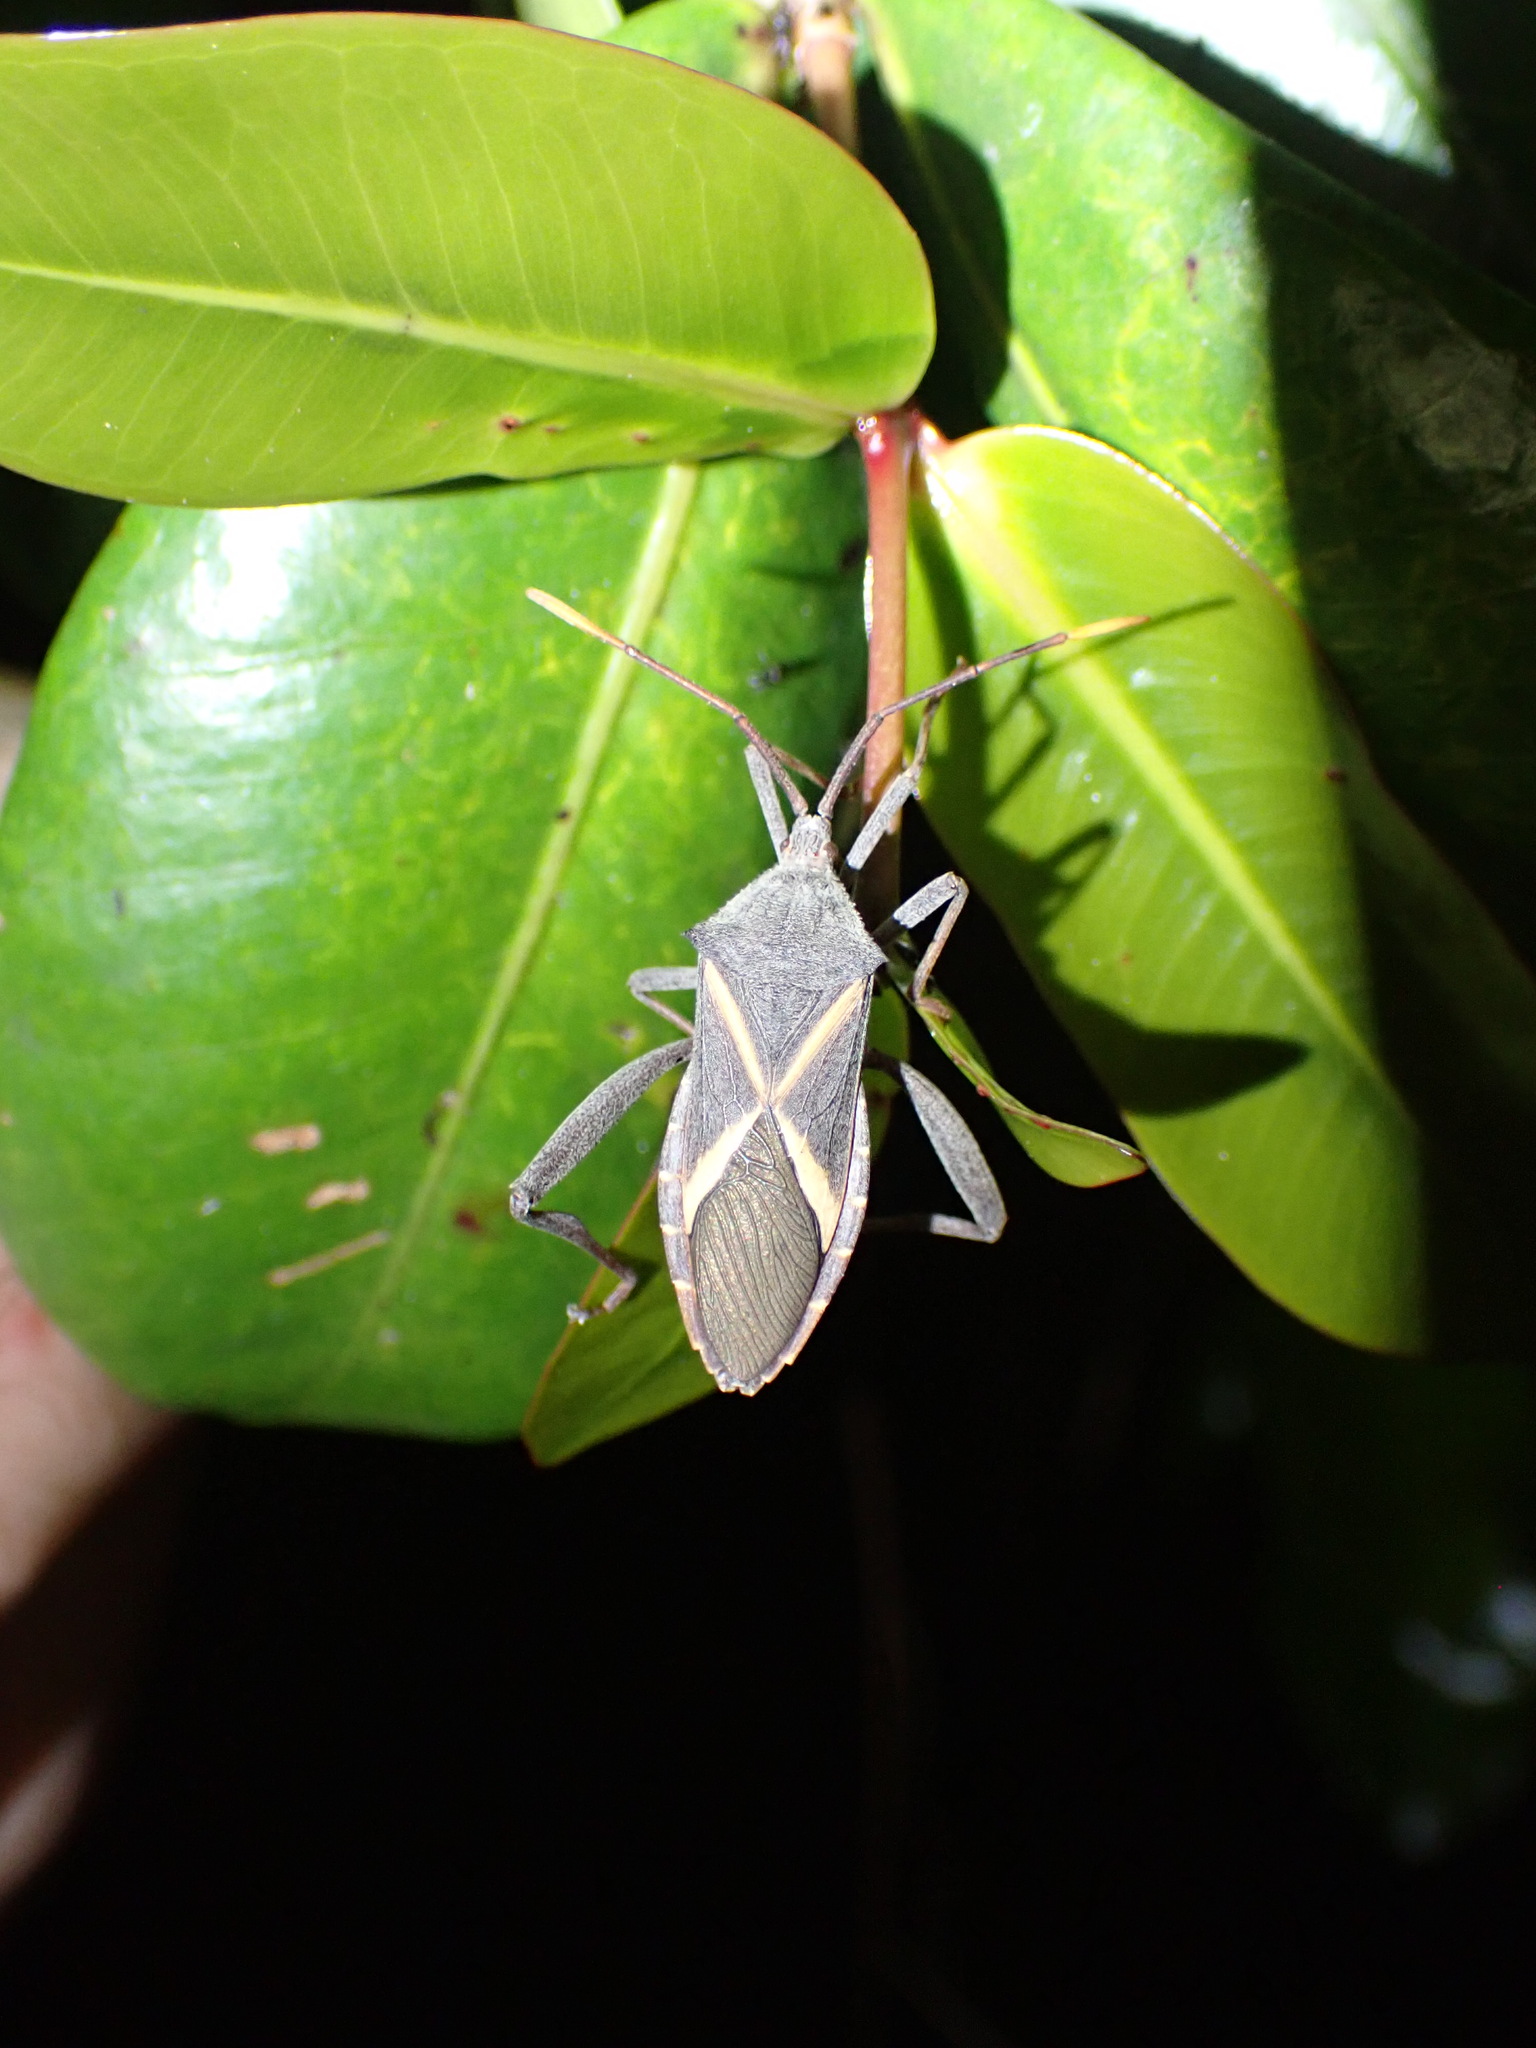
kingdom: Animalia
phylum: Arthropoda
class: Insecta
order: Hemiptera
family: Coreidae
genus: Mictis
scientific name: Mictis profana
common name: Crusader bug
